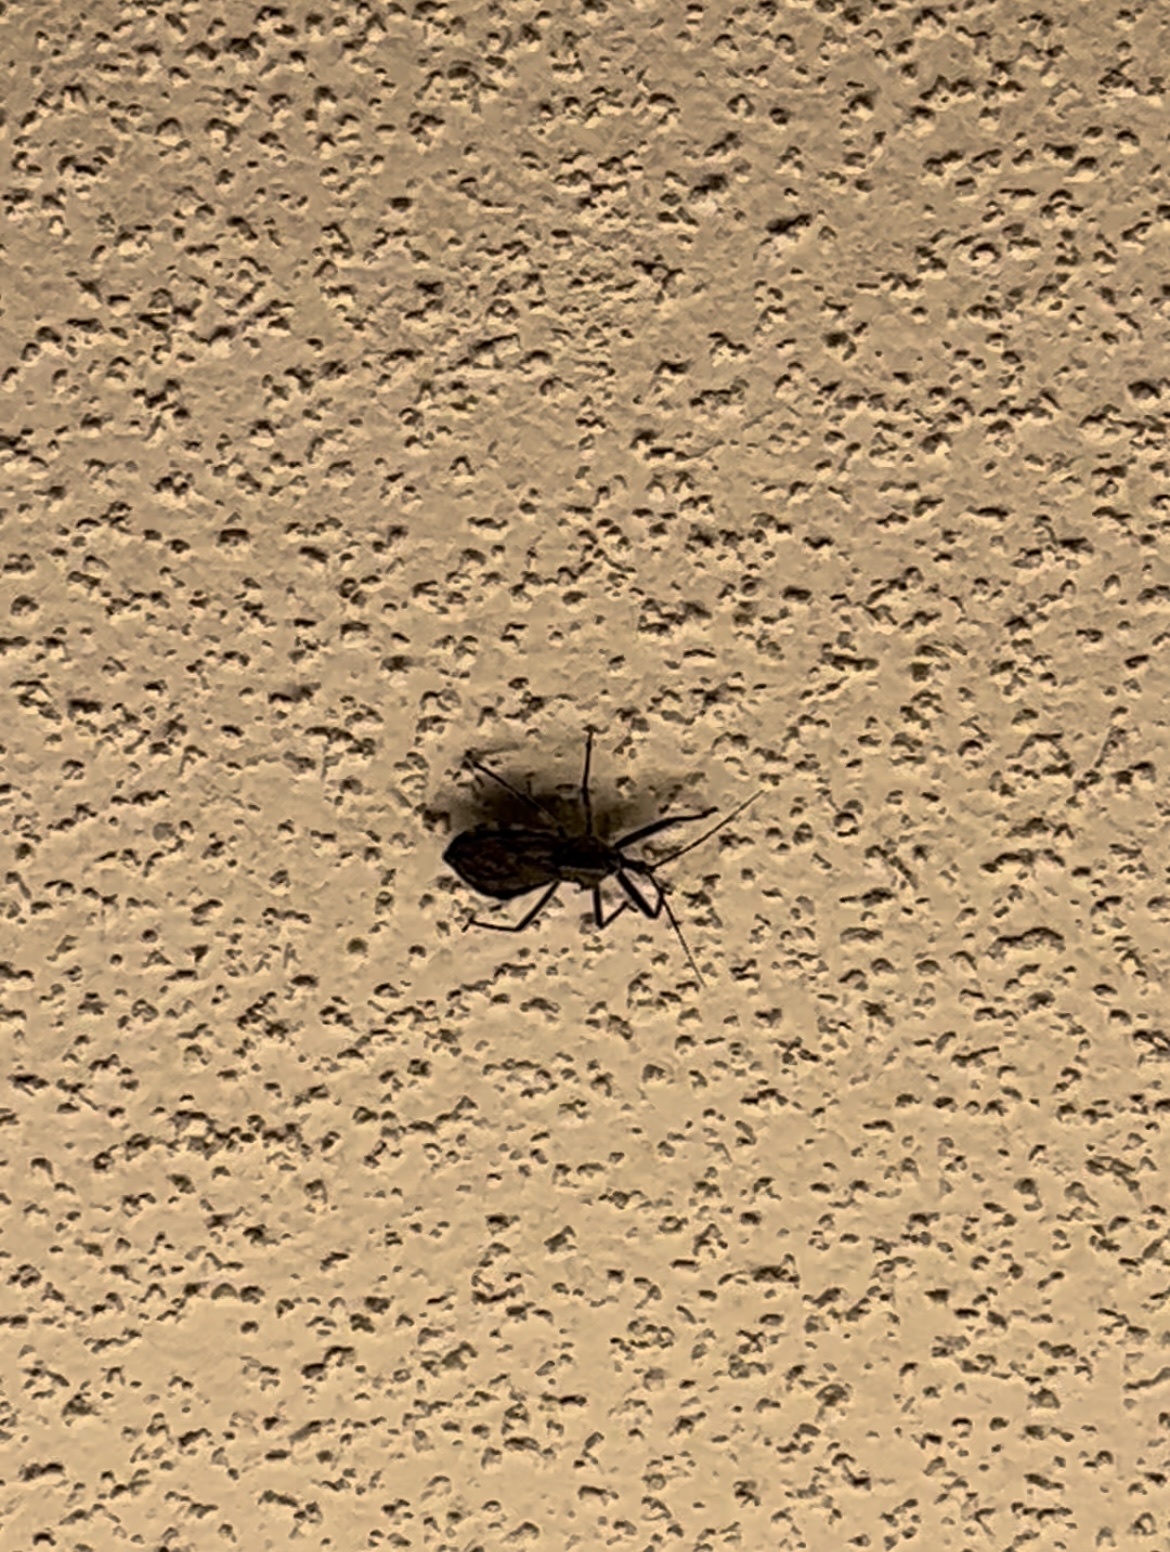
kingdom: Animalia
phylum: Arthropoda
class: Insecta
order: Hemiptera
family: Reduviidae
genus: Arilus
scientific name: Arilus cristatus
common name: North american wheel bug
